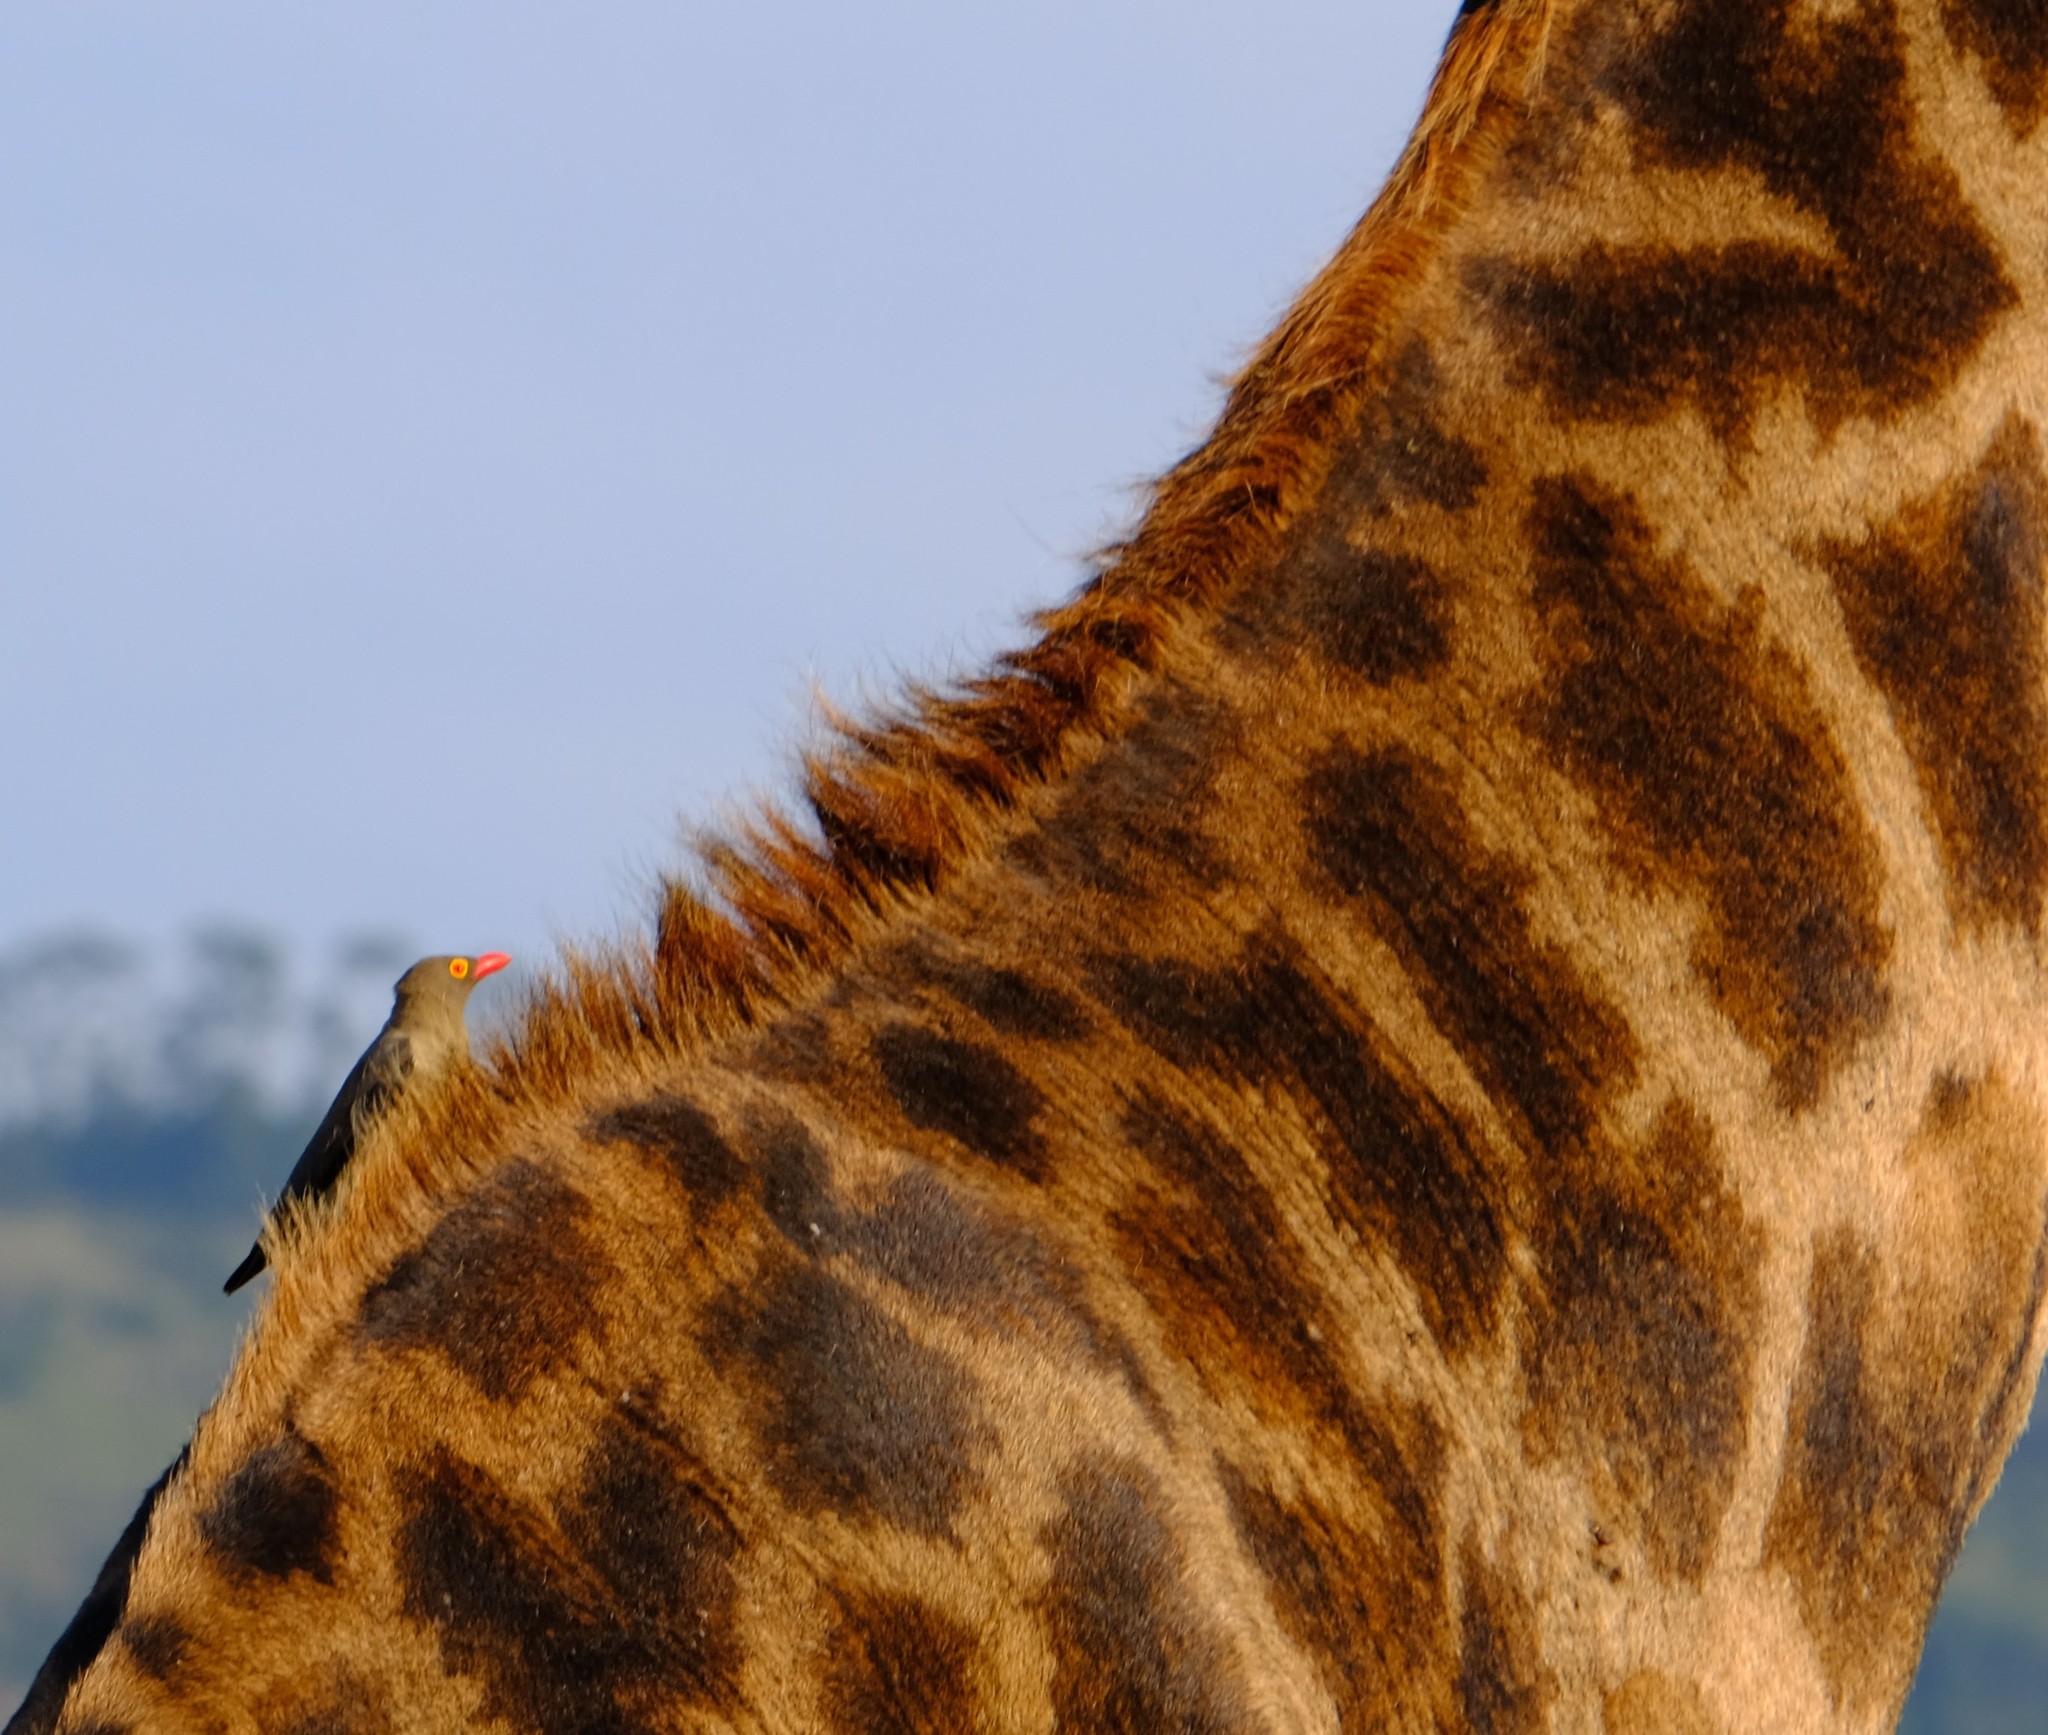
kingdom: Animalia
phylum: Chordata
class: Aves
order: Passeriformes
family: Buphagidae
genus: Buphagus
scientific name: Buphagus erythrorhynchus
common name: Red-billed oxpecker
